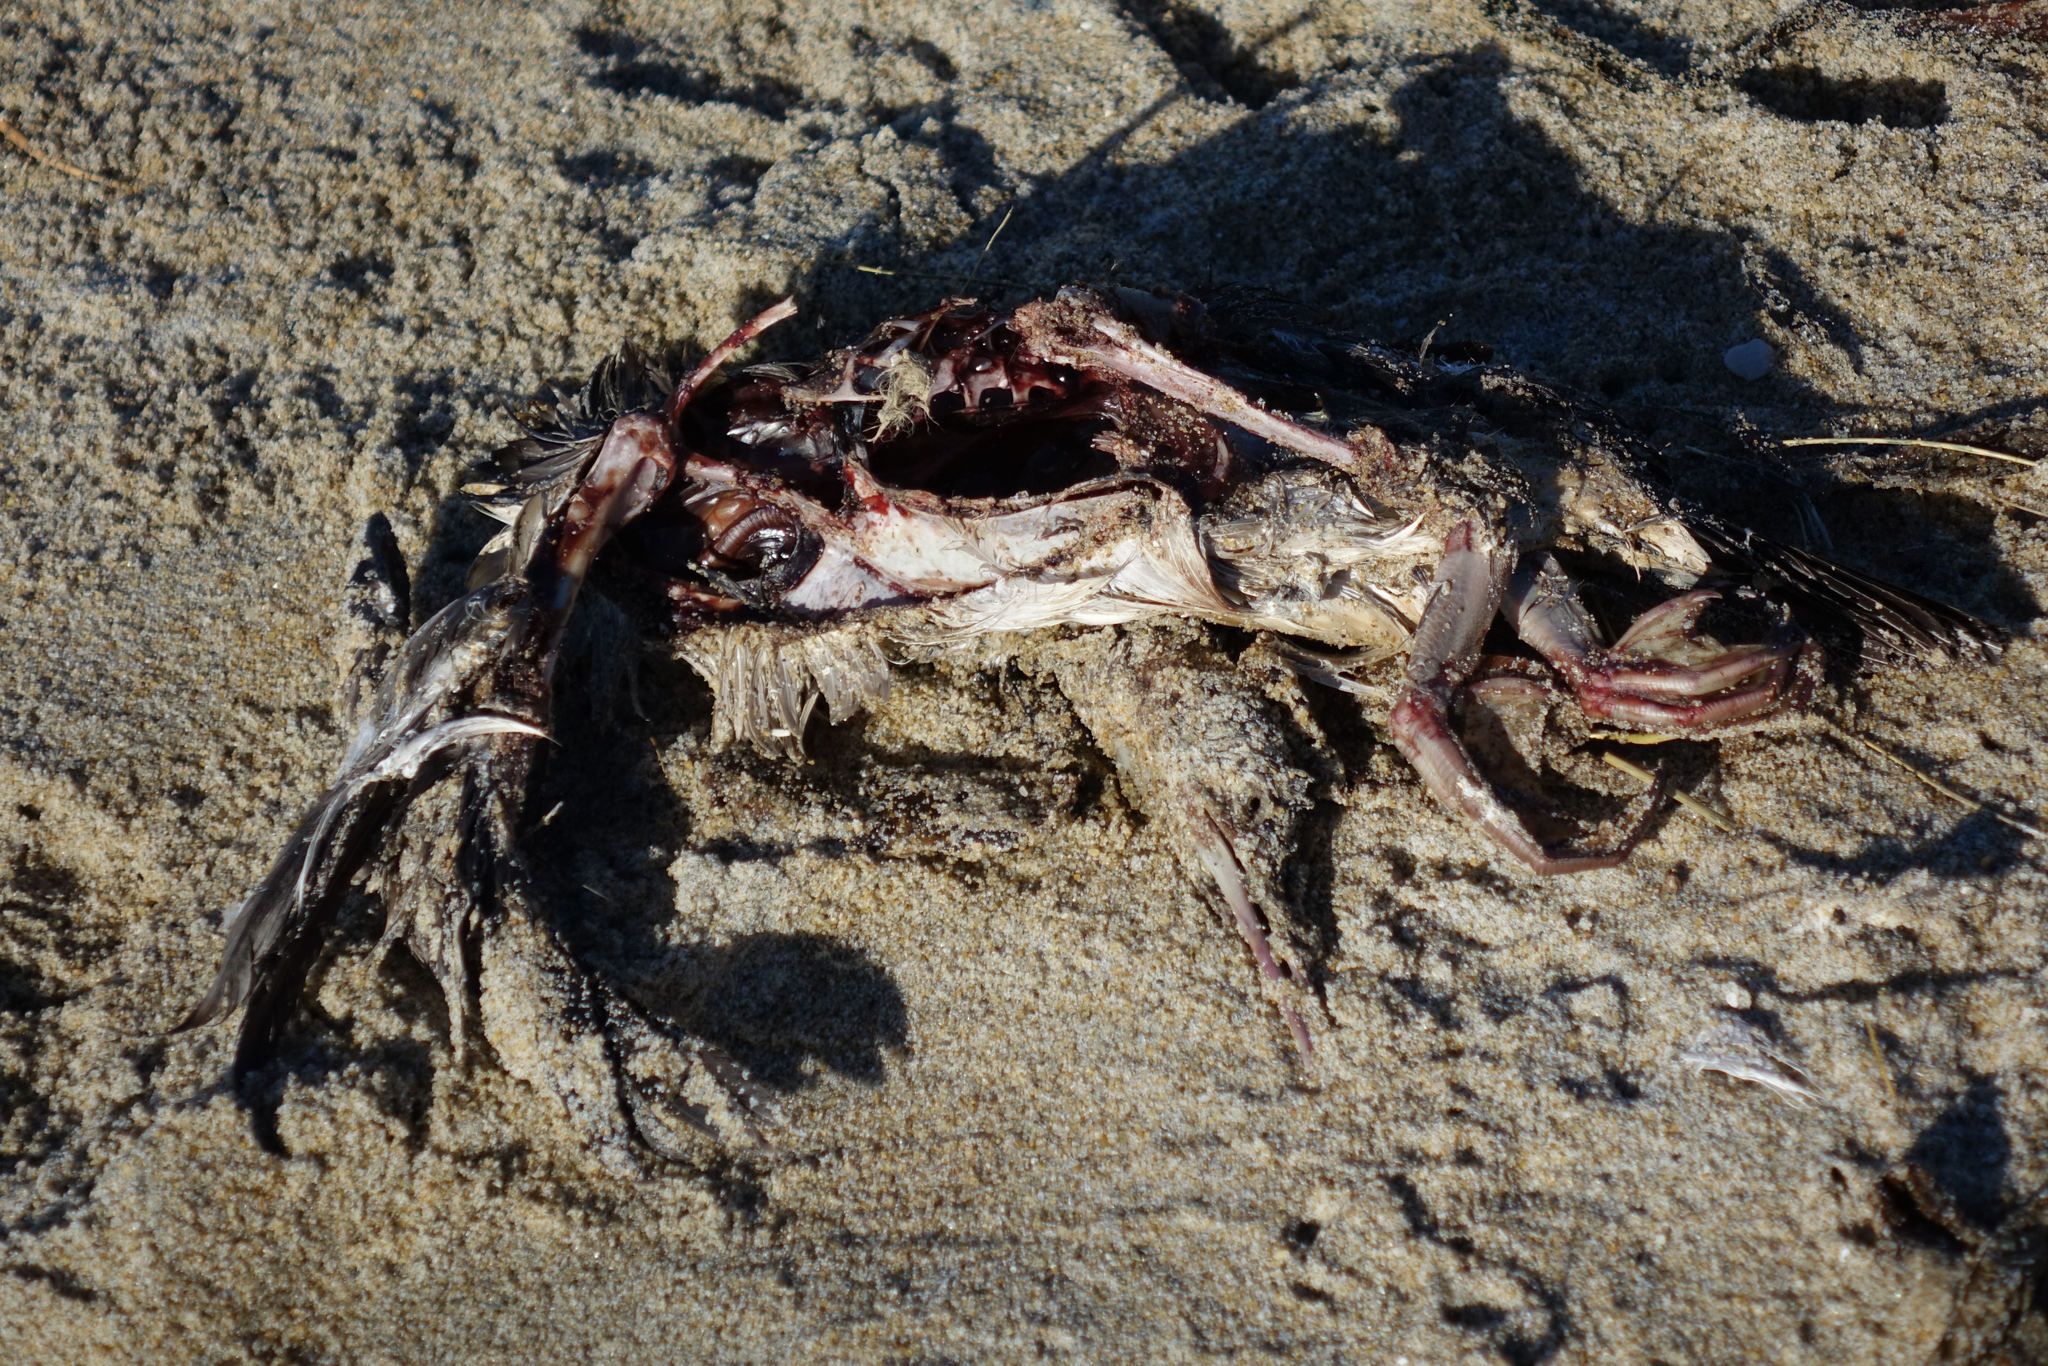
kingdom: Animalia
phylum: Chordata
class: Aves
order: Suliformes
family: Phalacrocoracidae
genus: Phalacrocorax
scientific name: Phalacrocorax punctatus
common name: Spotted shag
